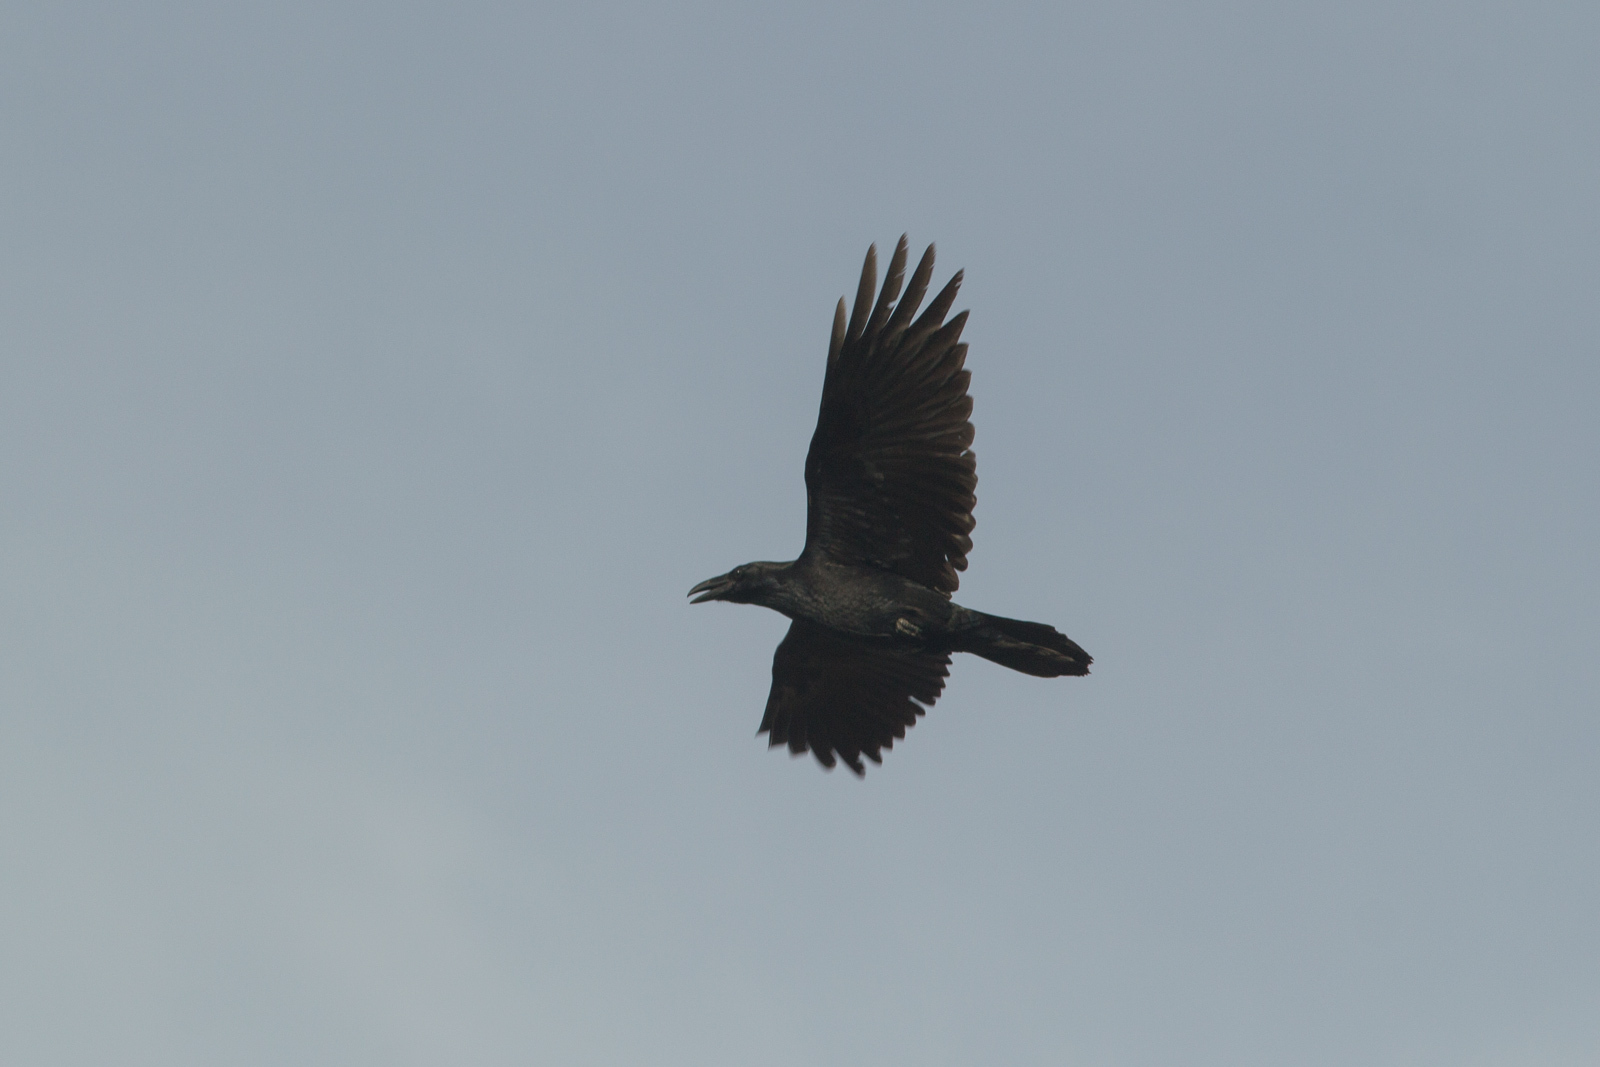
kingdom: Animalia
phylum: Chordata
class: Aves
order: Passeriformes
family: Corvidae
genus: Corvus
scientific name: Corvus corax
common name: Common raven
